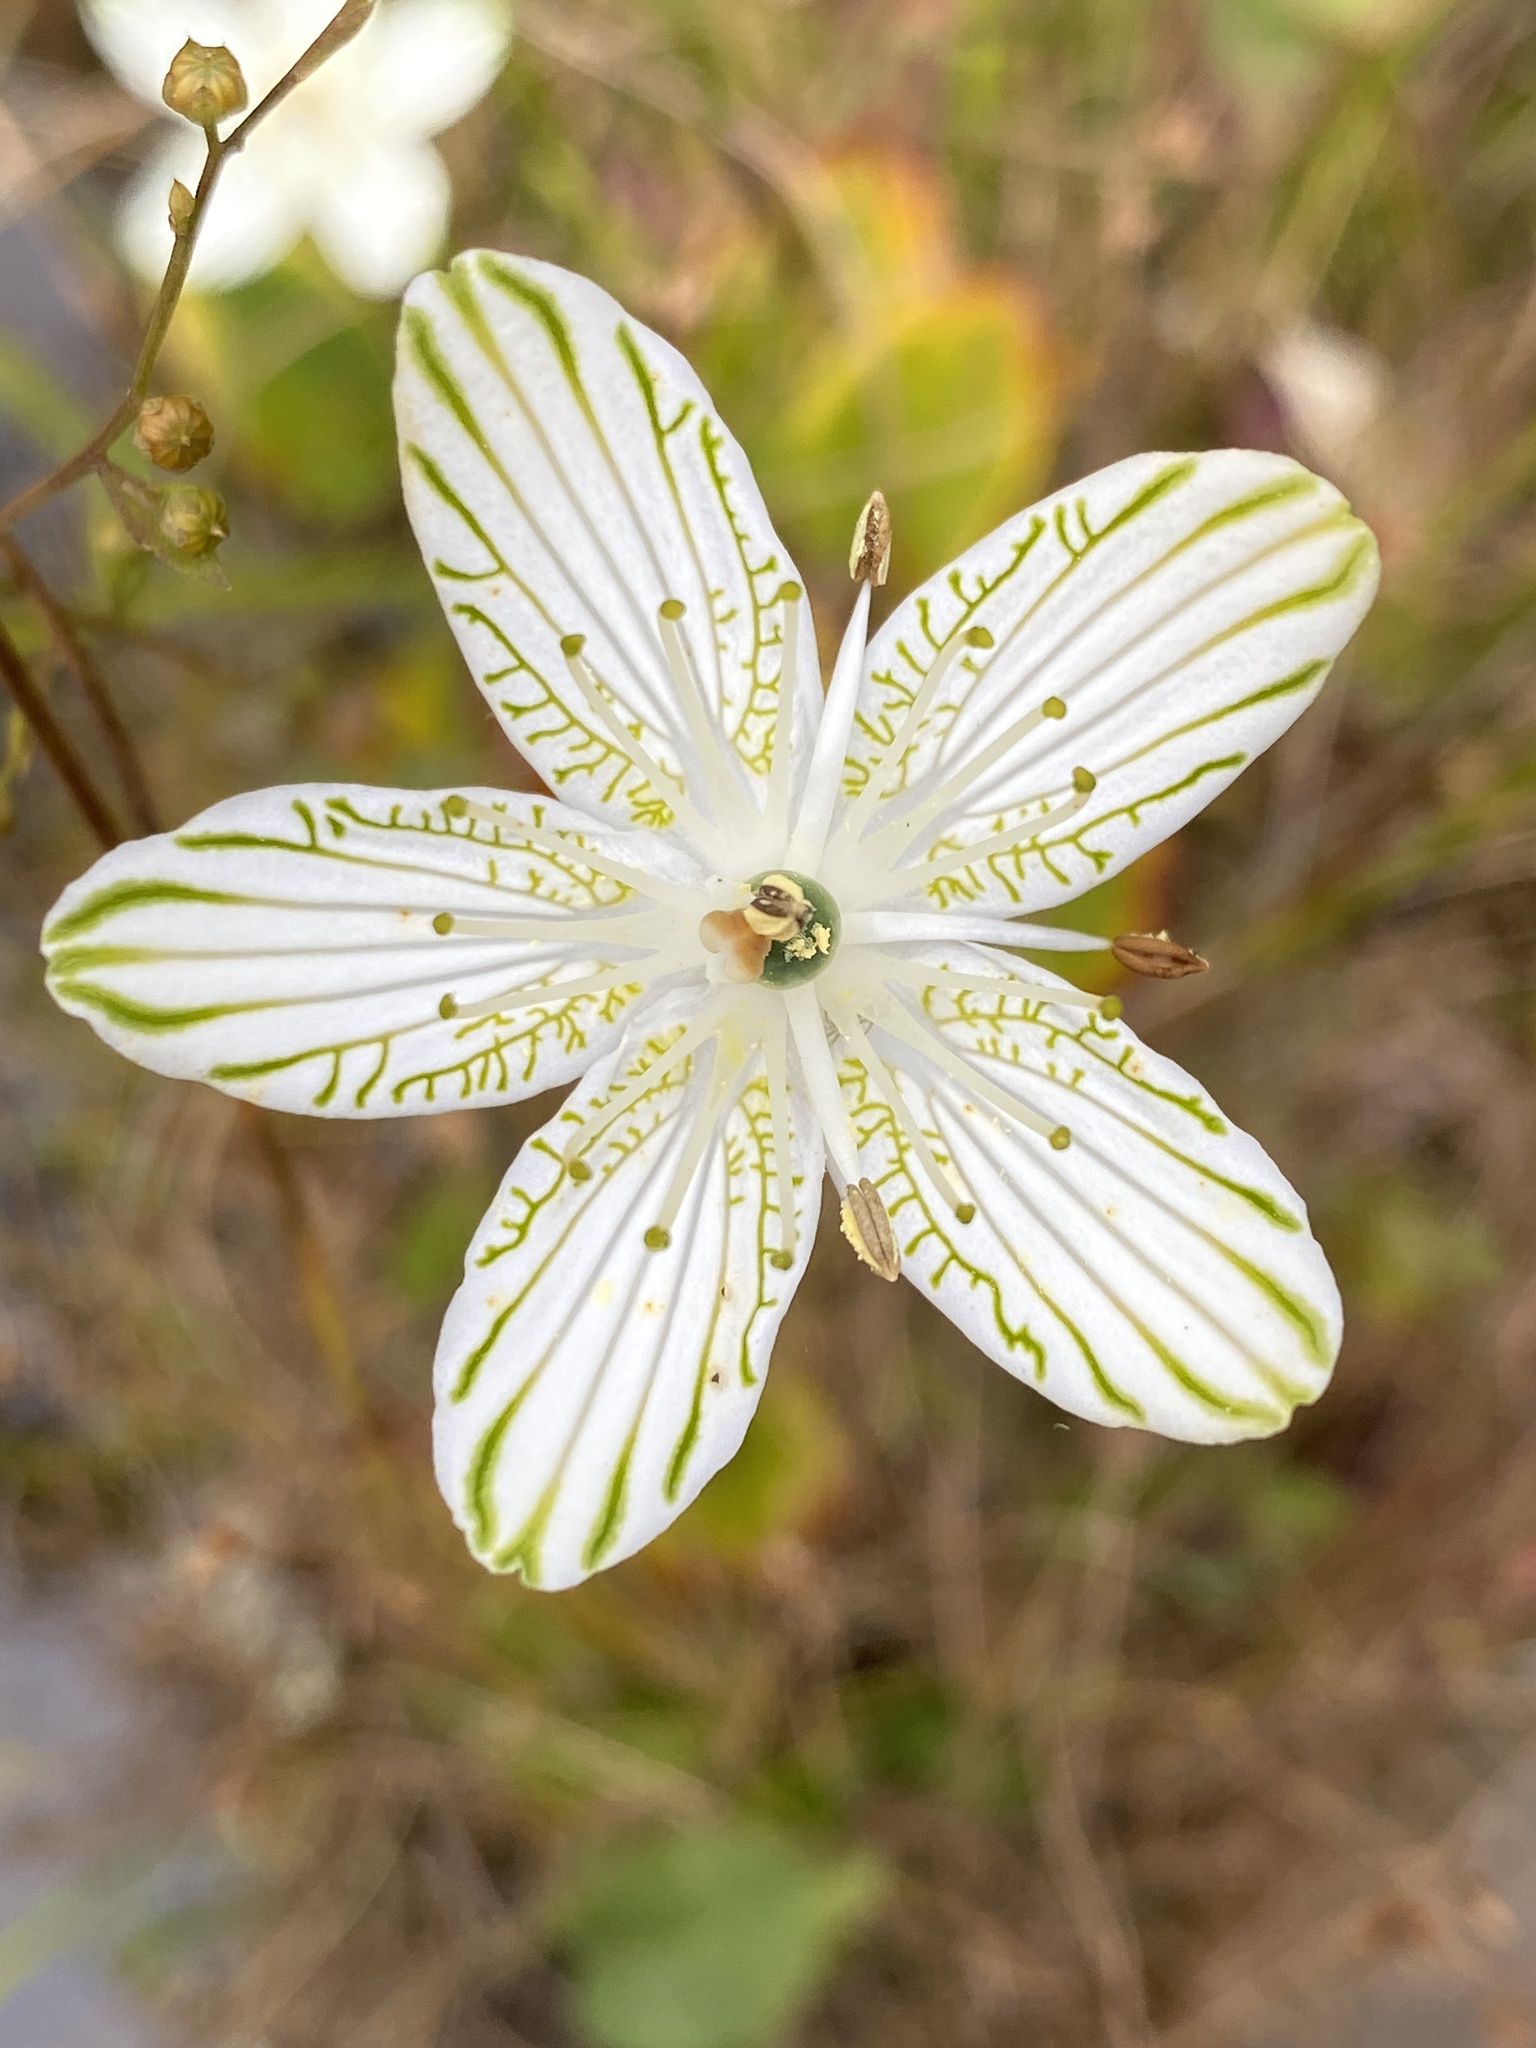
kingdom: Plantae
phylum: Tracheophyta
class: Magnoliopsida
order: Celastrales
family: Parnassiaceae
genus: Parnassia
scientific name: Parnassia grandifolia
